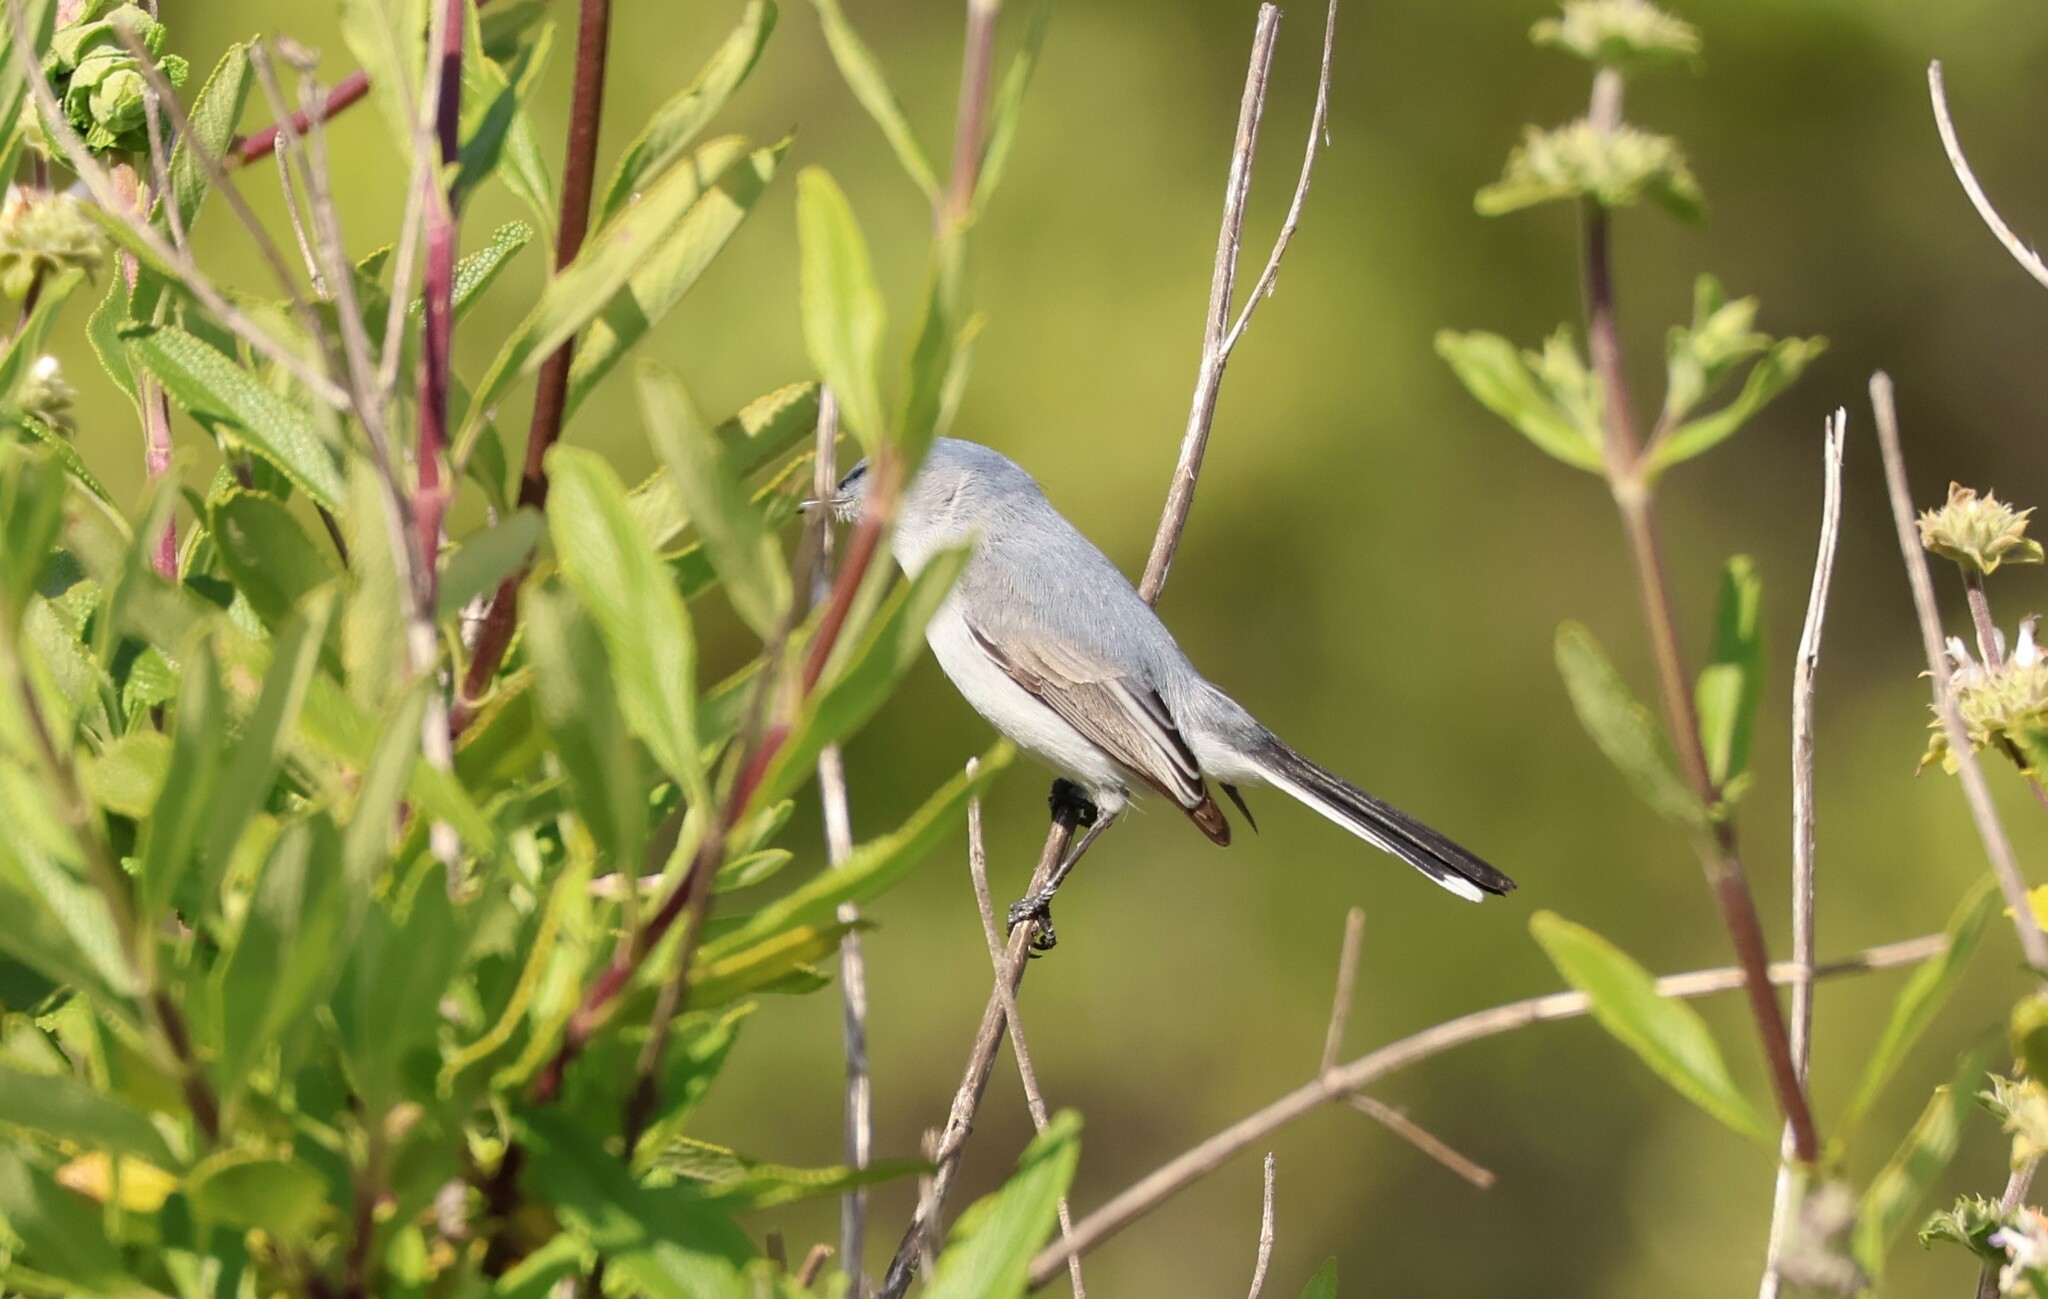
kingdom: Animalia
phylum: Chordata
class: Aves
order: Passeriformes
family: Polioptilidae
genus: Polioptila
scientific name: Polioptila caerulea
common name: Blue-gray gnatcatcher
